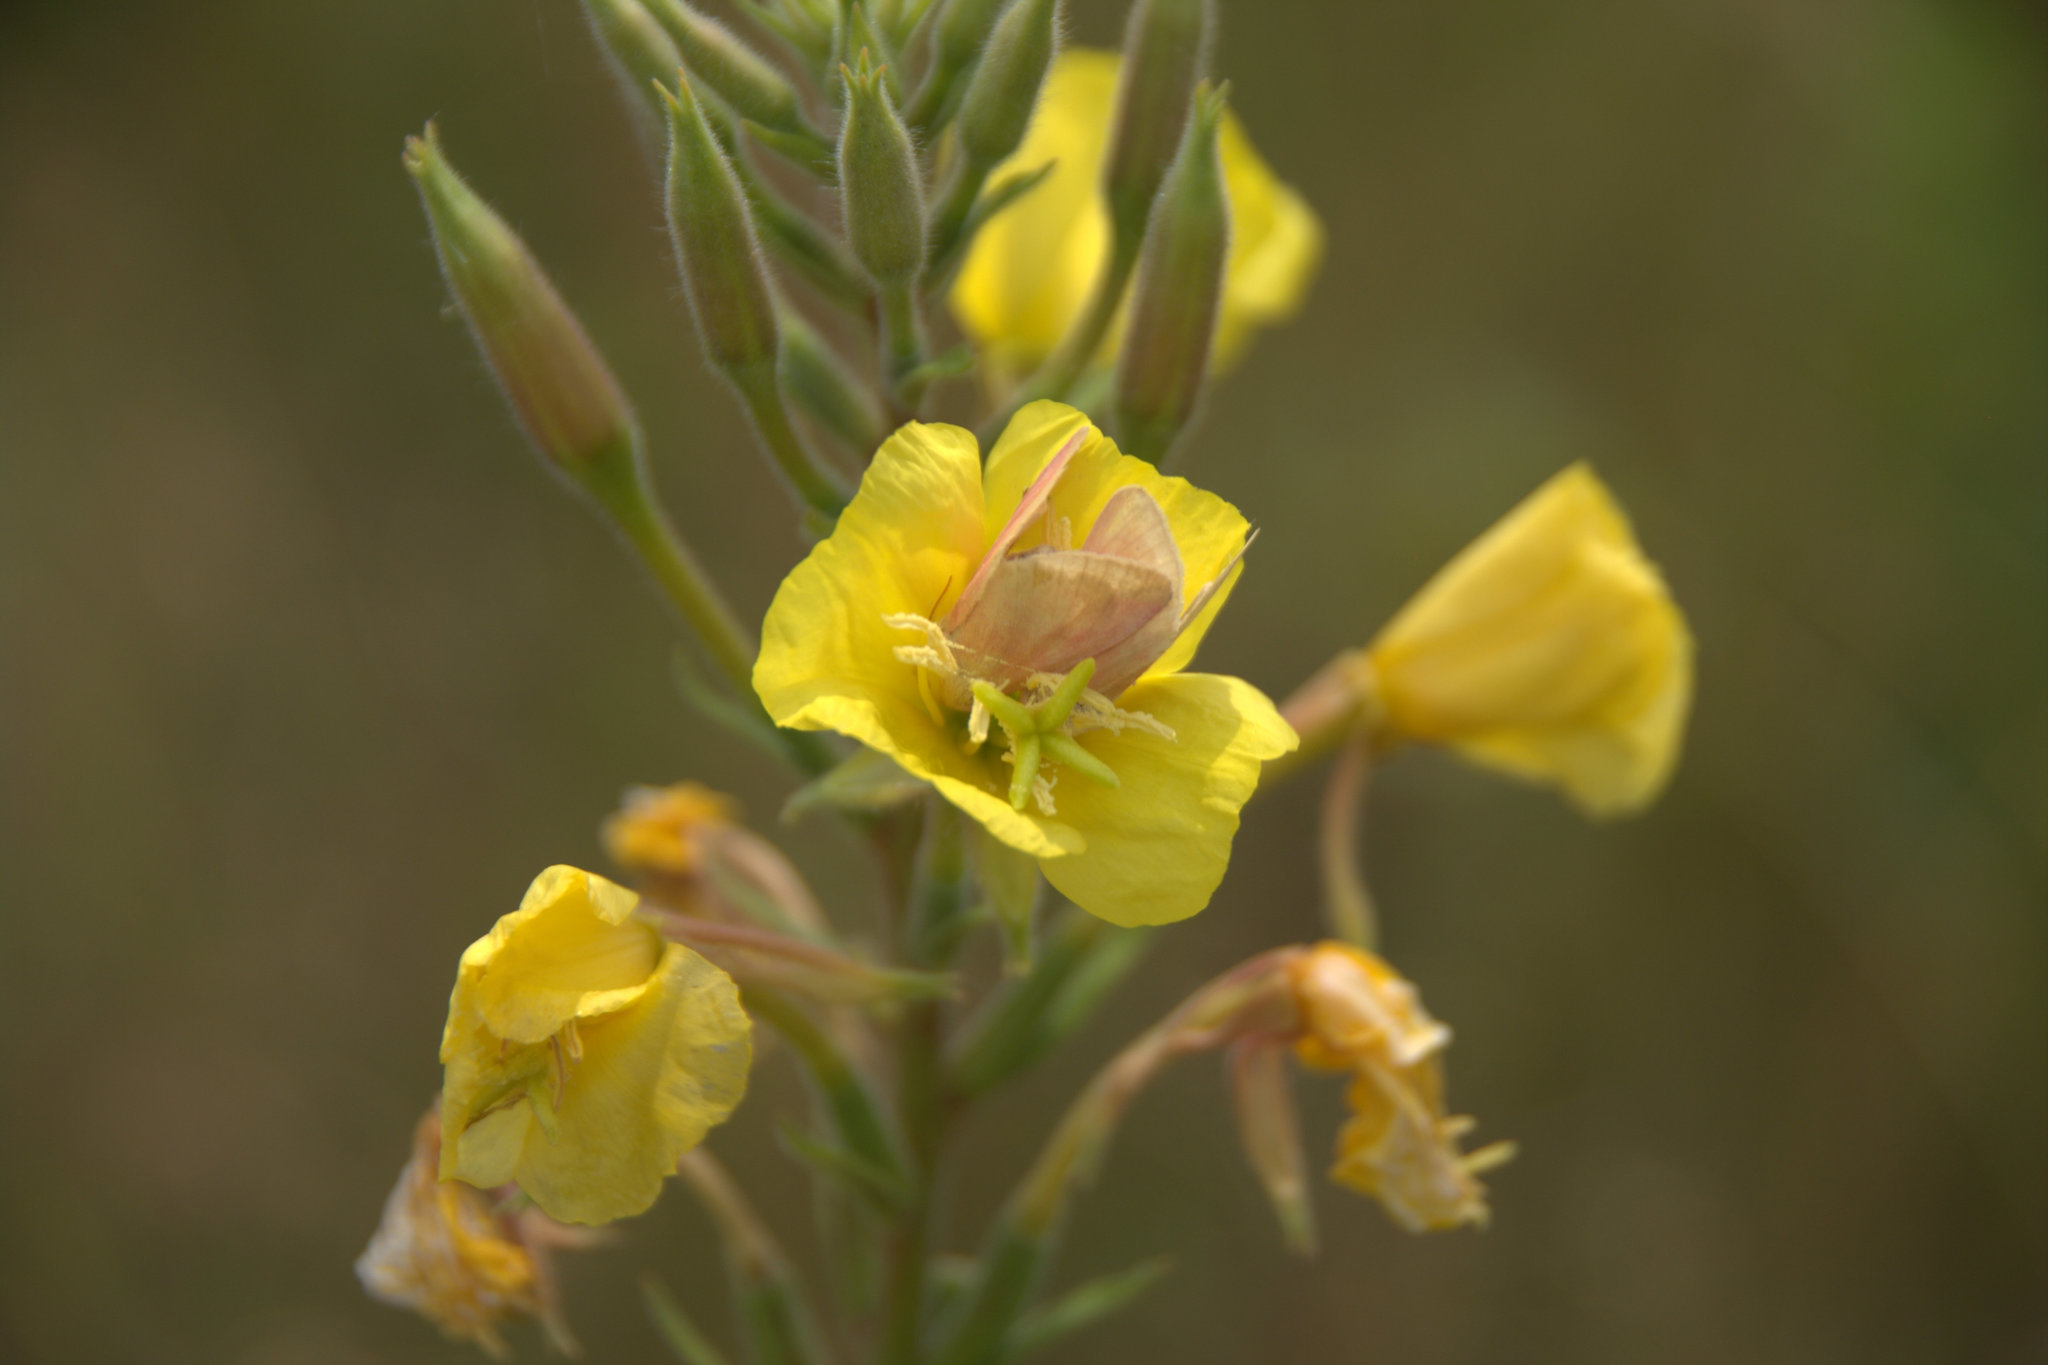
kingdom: Animalia
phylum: Arthropoda
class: Insecta
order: Lepidoptera
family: Noctuidae
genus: Schinia
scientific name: Schinia florida
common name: Primrose moth
